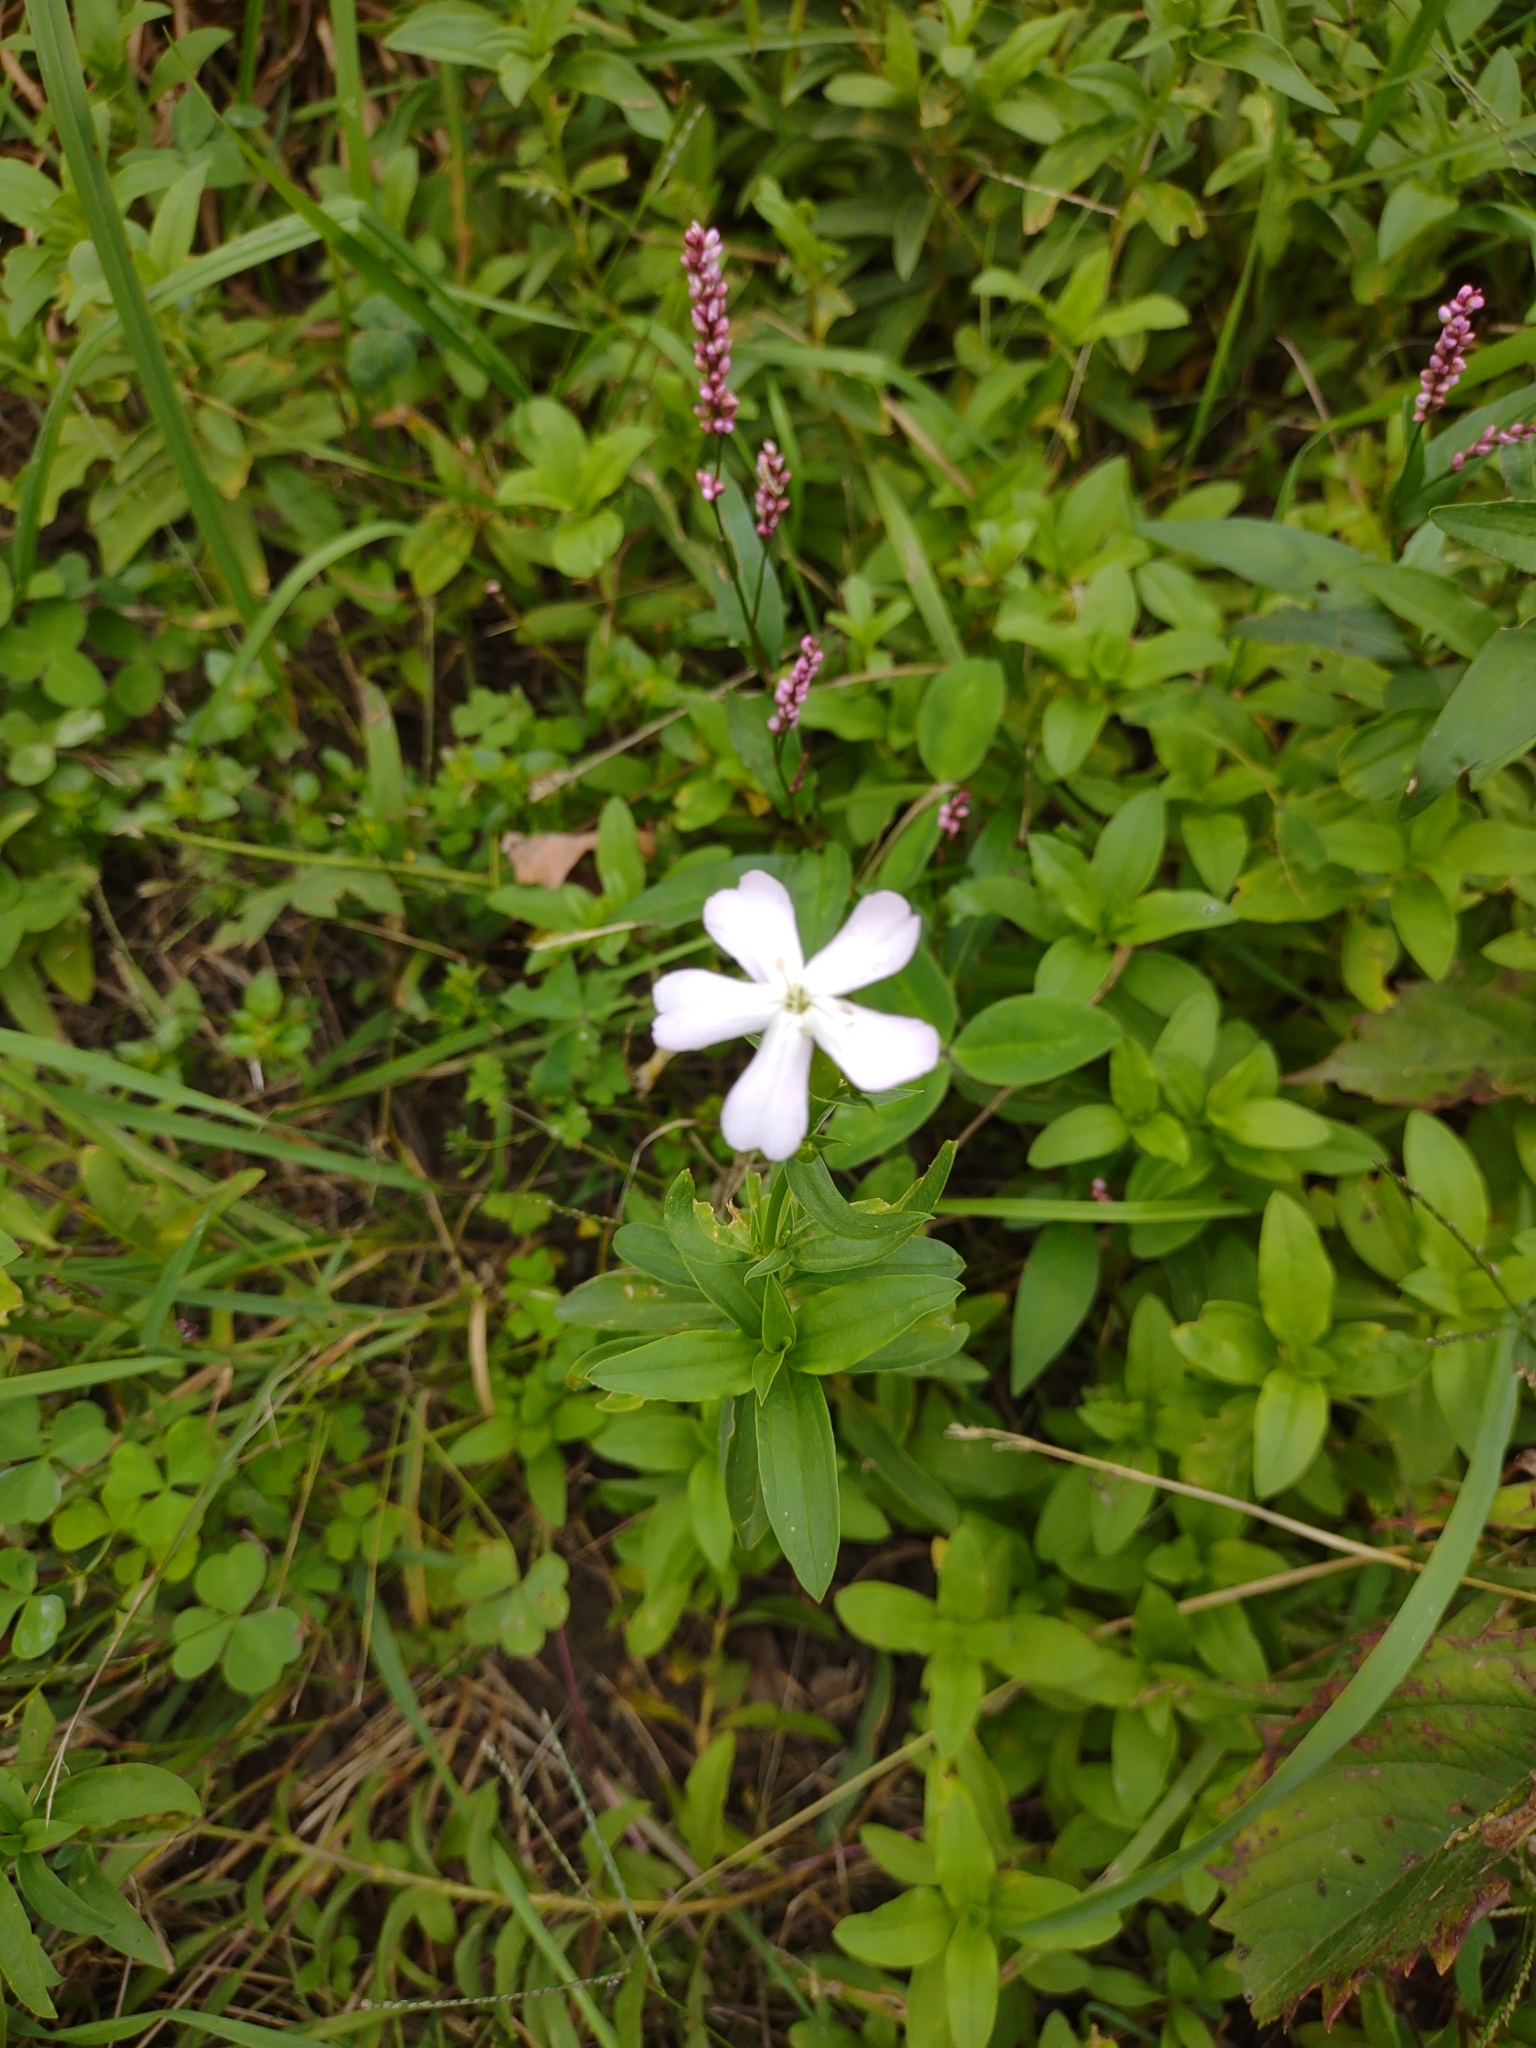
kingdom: Plantae
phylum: Tracheophyta
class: Magnoliopsida
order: Caryophyllales
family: Caryophyllaceae
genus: Saponaria
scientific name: Saponaria officinalis
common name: Soapwort
